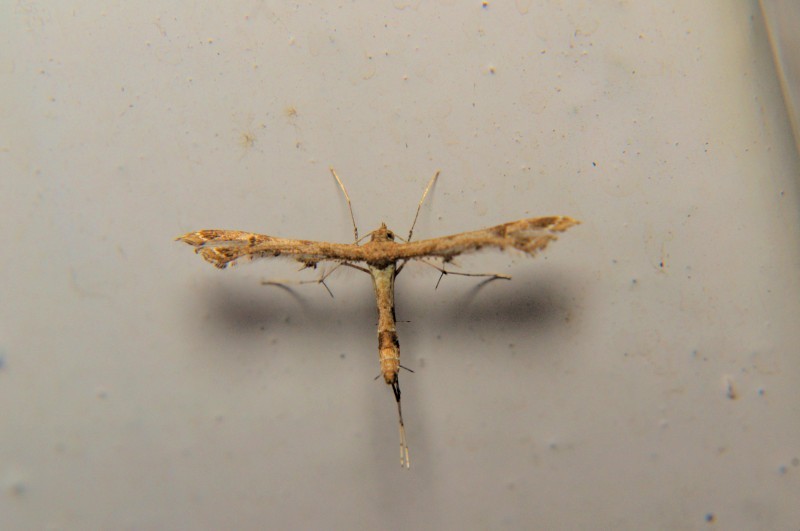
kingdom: Animalia
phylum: Arthropoda
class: Insecta
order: Lepidoptera
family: Pterophoridae
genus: Lantanophaga
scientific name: Lantanophaga pusillidactylus
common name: Moth
